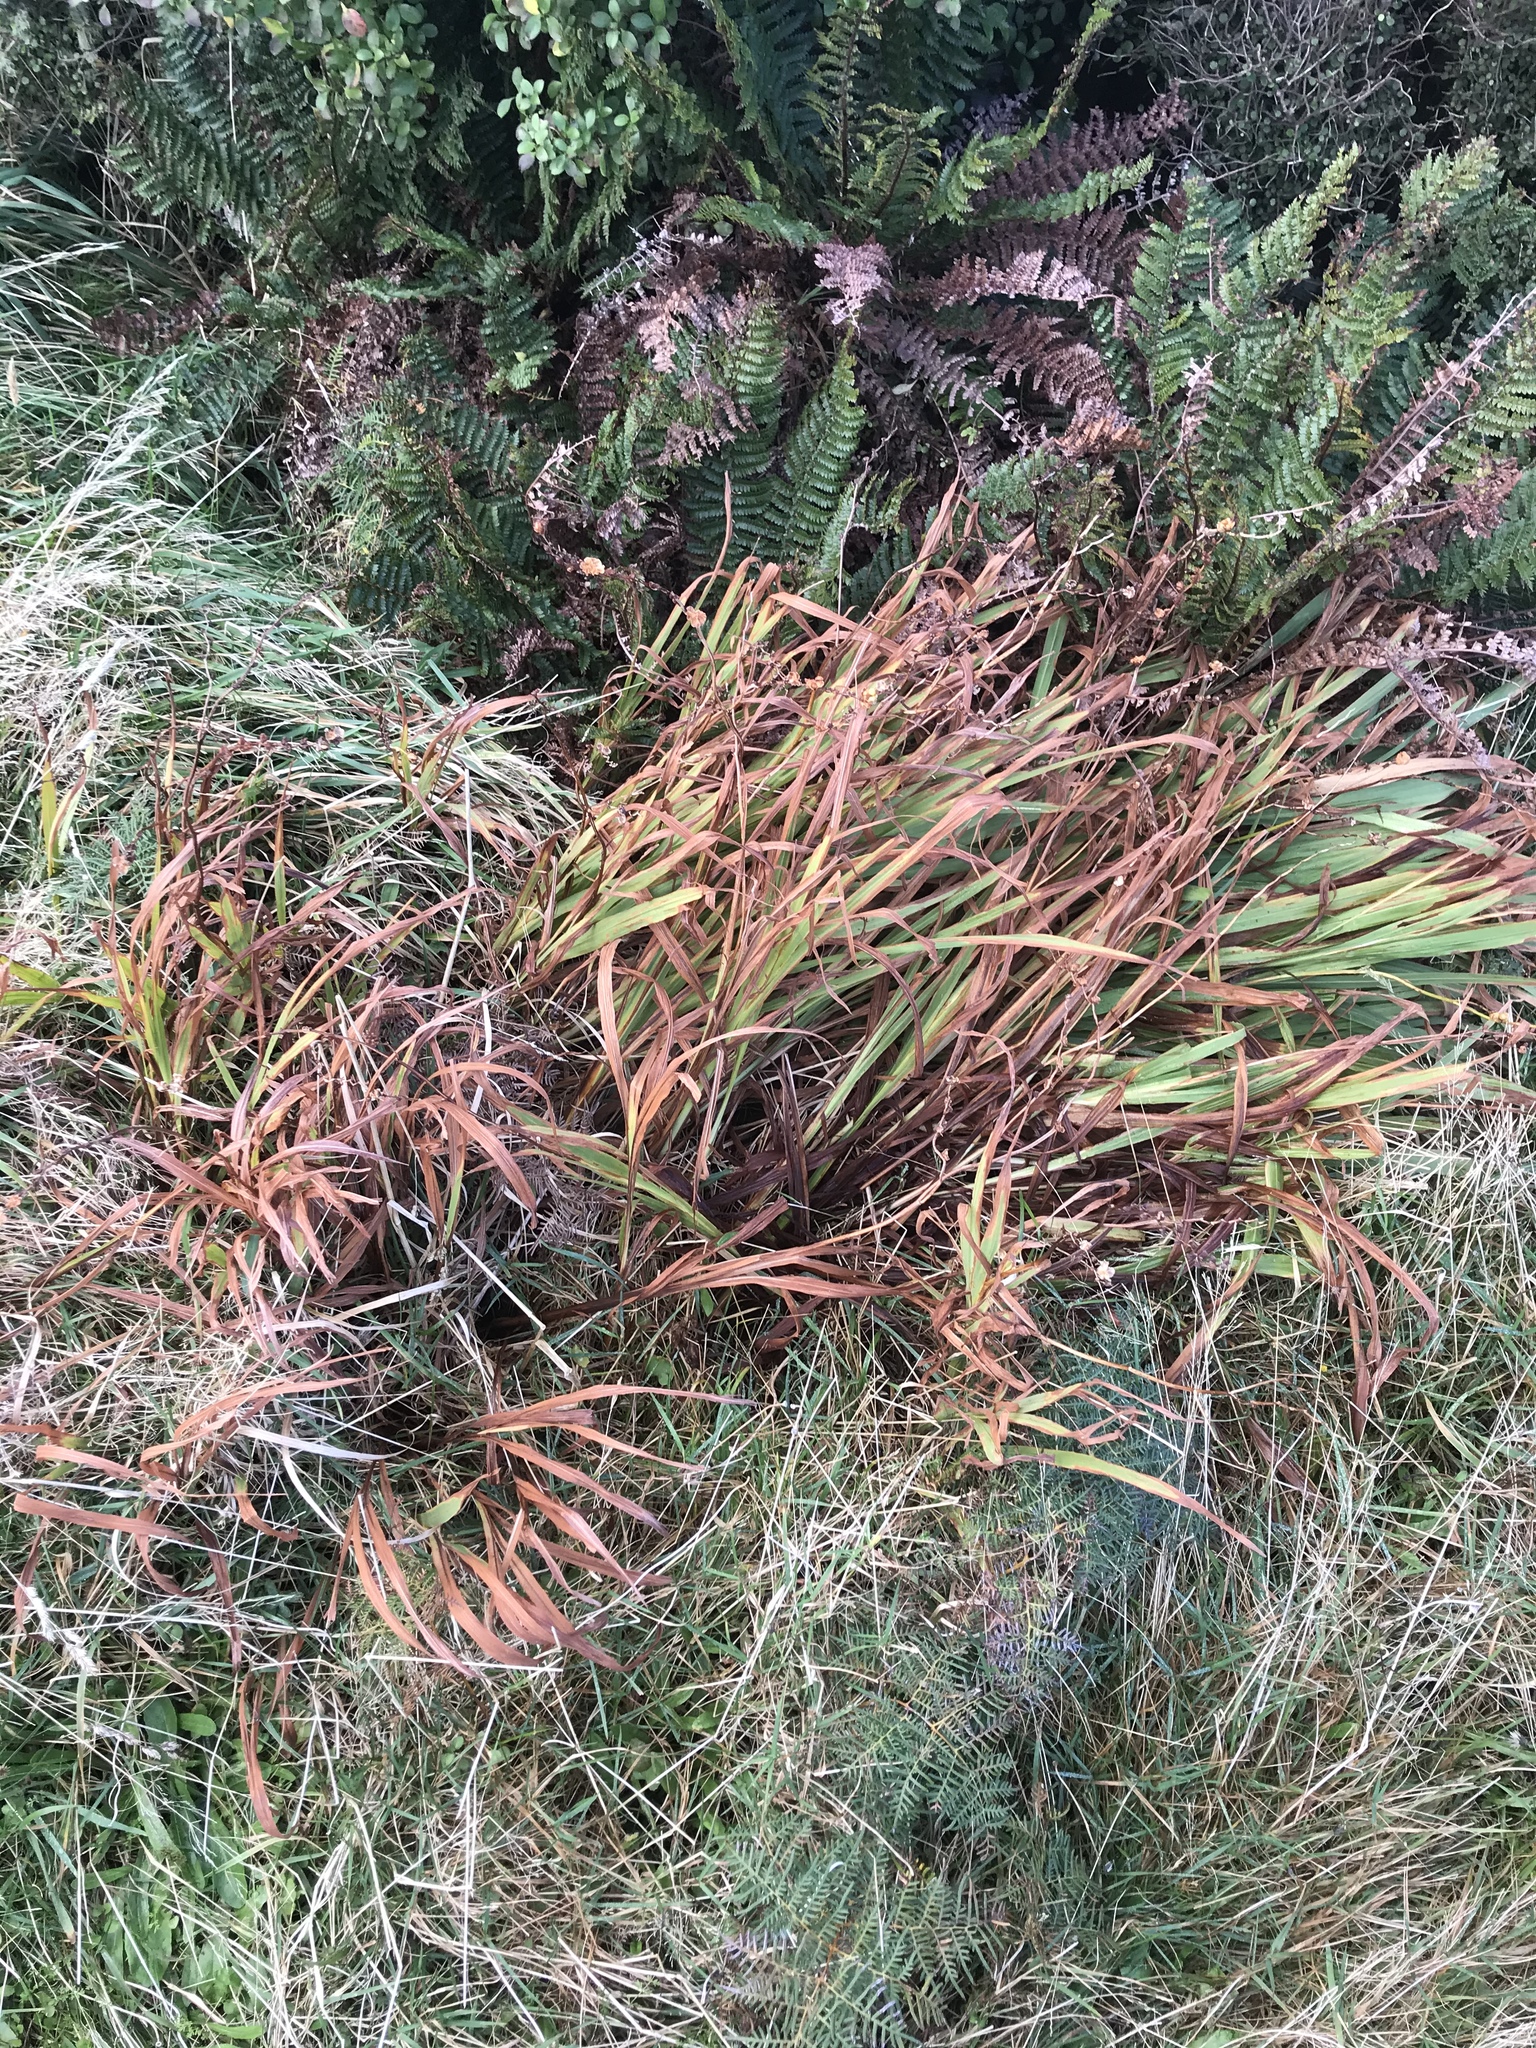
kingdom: Plantae
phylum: Tracheophyta
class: Liliopsida
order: Asparagales
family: Iridaceae
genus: Crocosmia
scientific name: Crocosmia crocosmiiflora
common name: Montbretia
